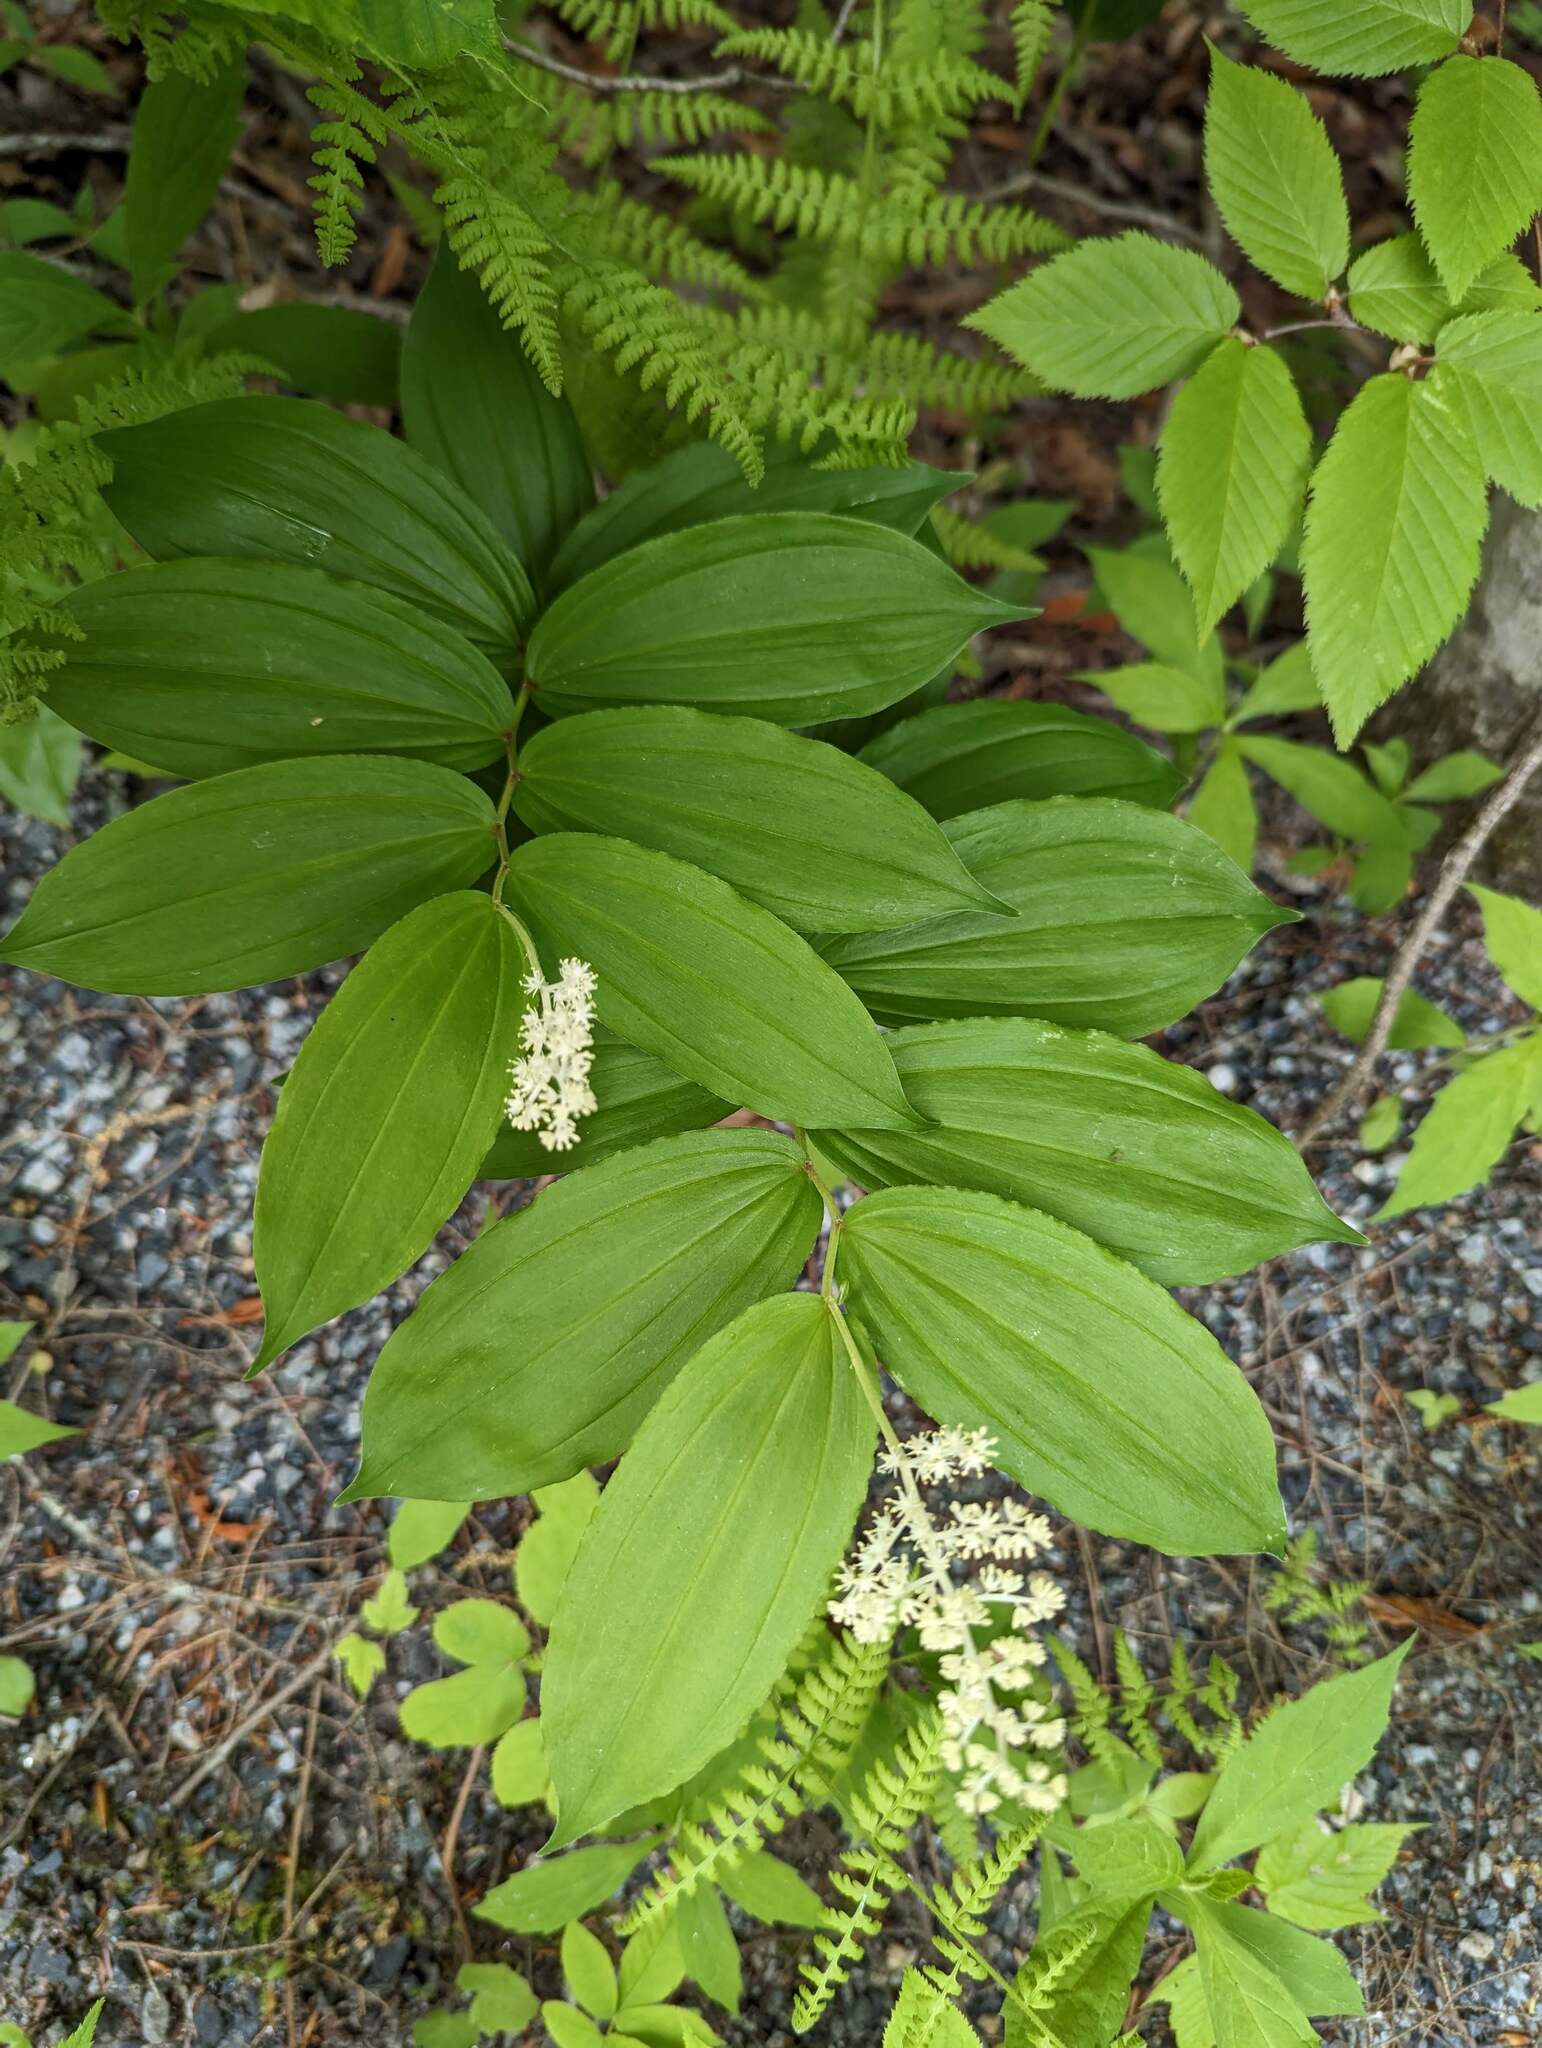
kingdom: Plantae
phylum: Tracheophyta
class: Liliopsida
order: Asparagales
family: Asparagaceae
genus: Maianthemum
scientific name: Maianthemum racemosum
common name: False spikenard
